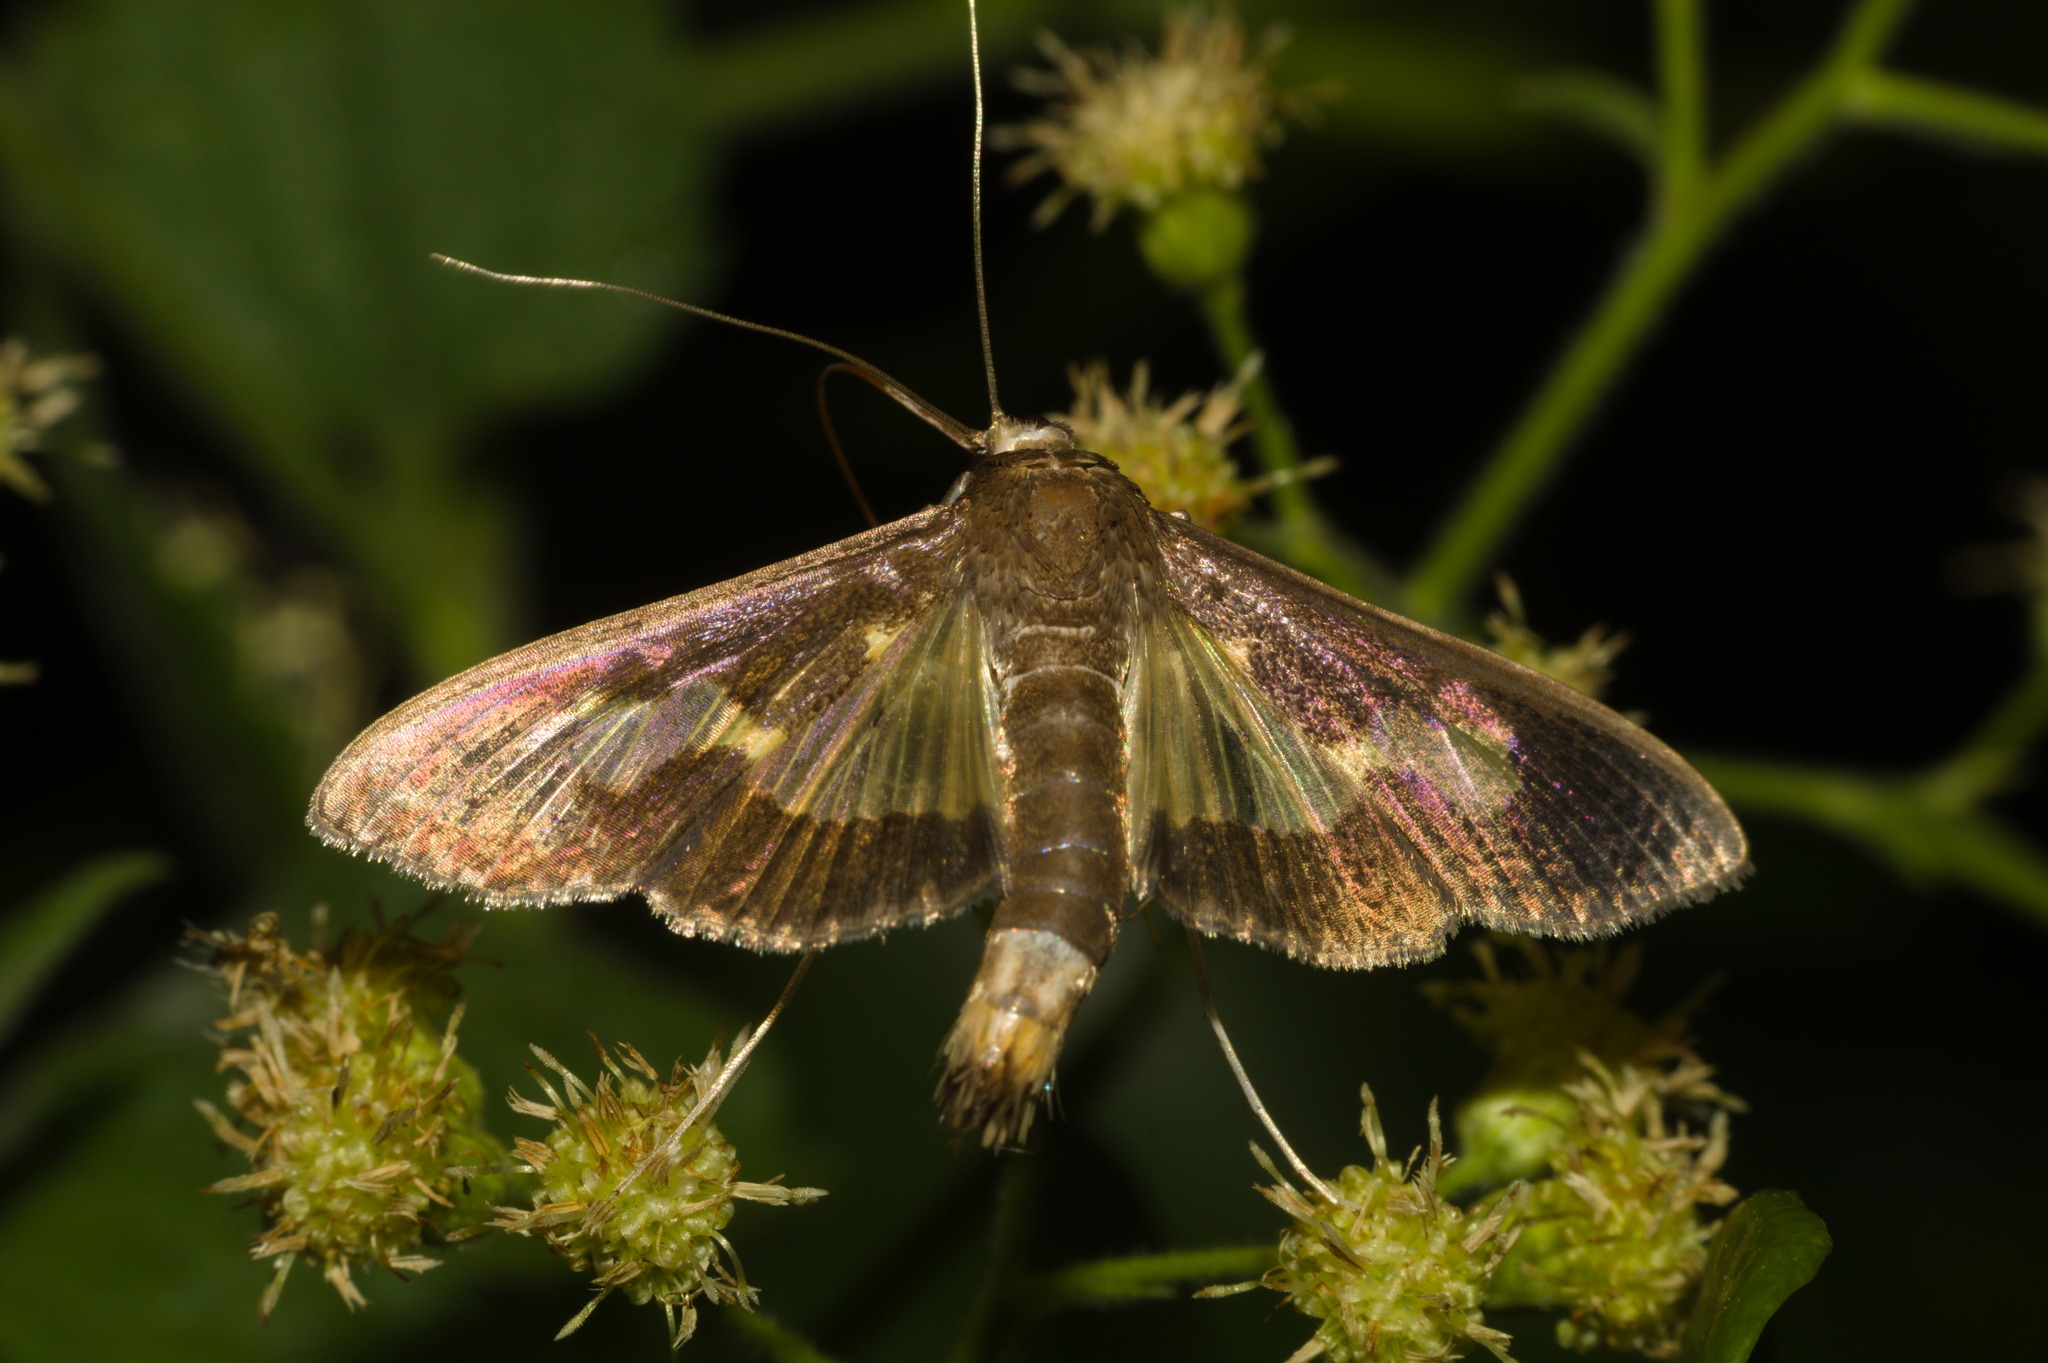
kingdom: Animalia
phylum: Arthropoda
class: Insecta
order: Lepidoptera
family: Crambidae
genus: Cryptographis
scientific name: Cryptographis nitidalis
